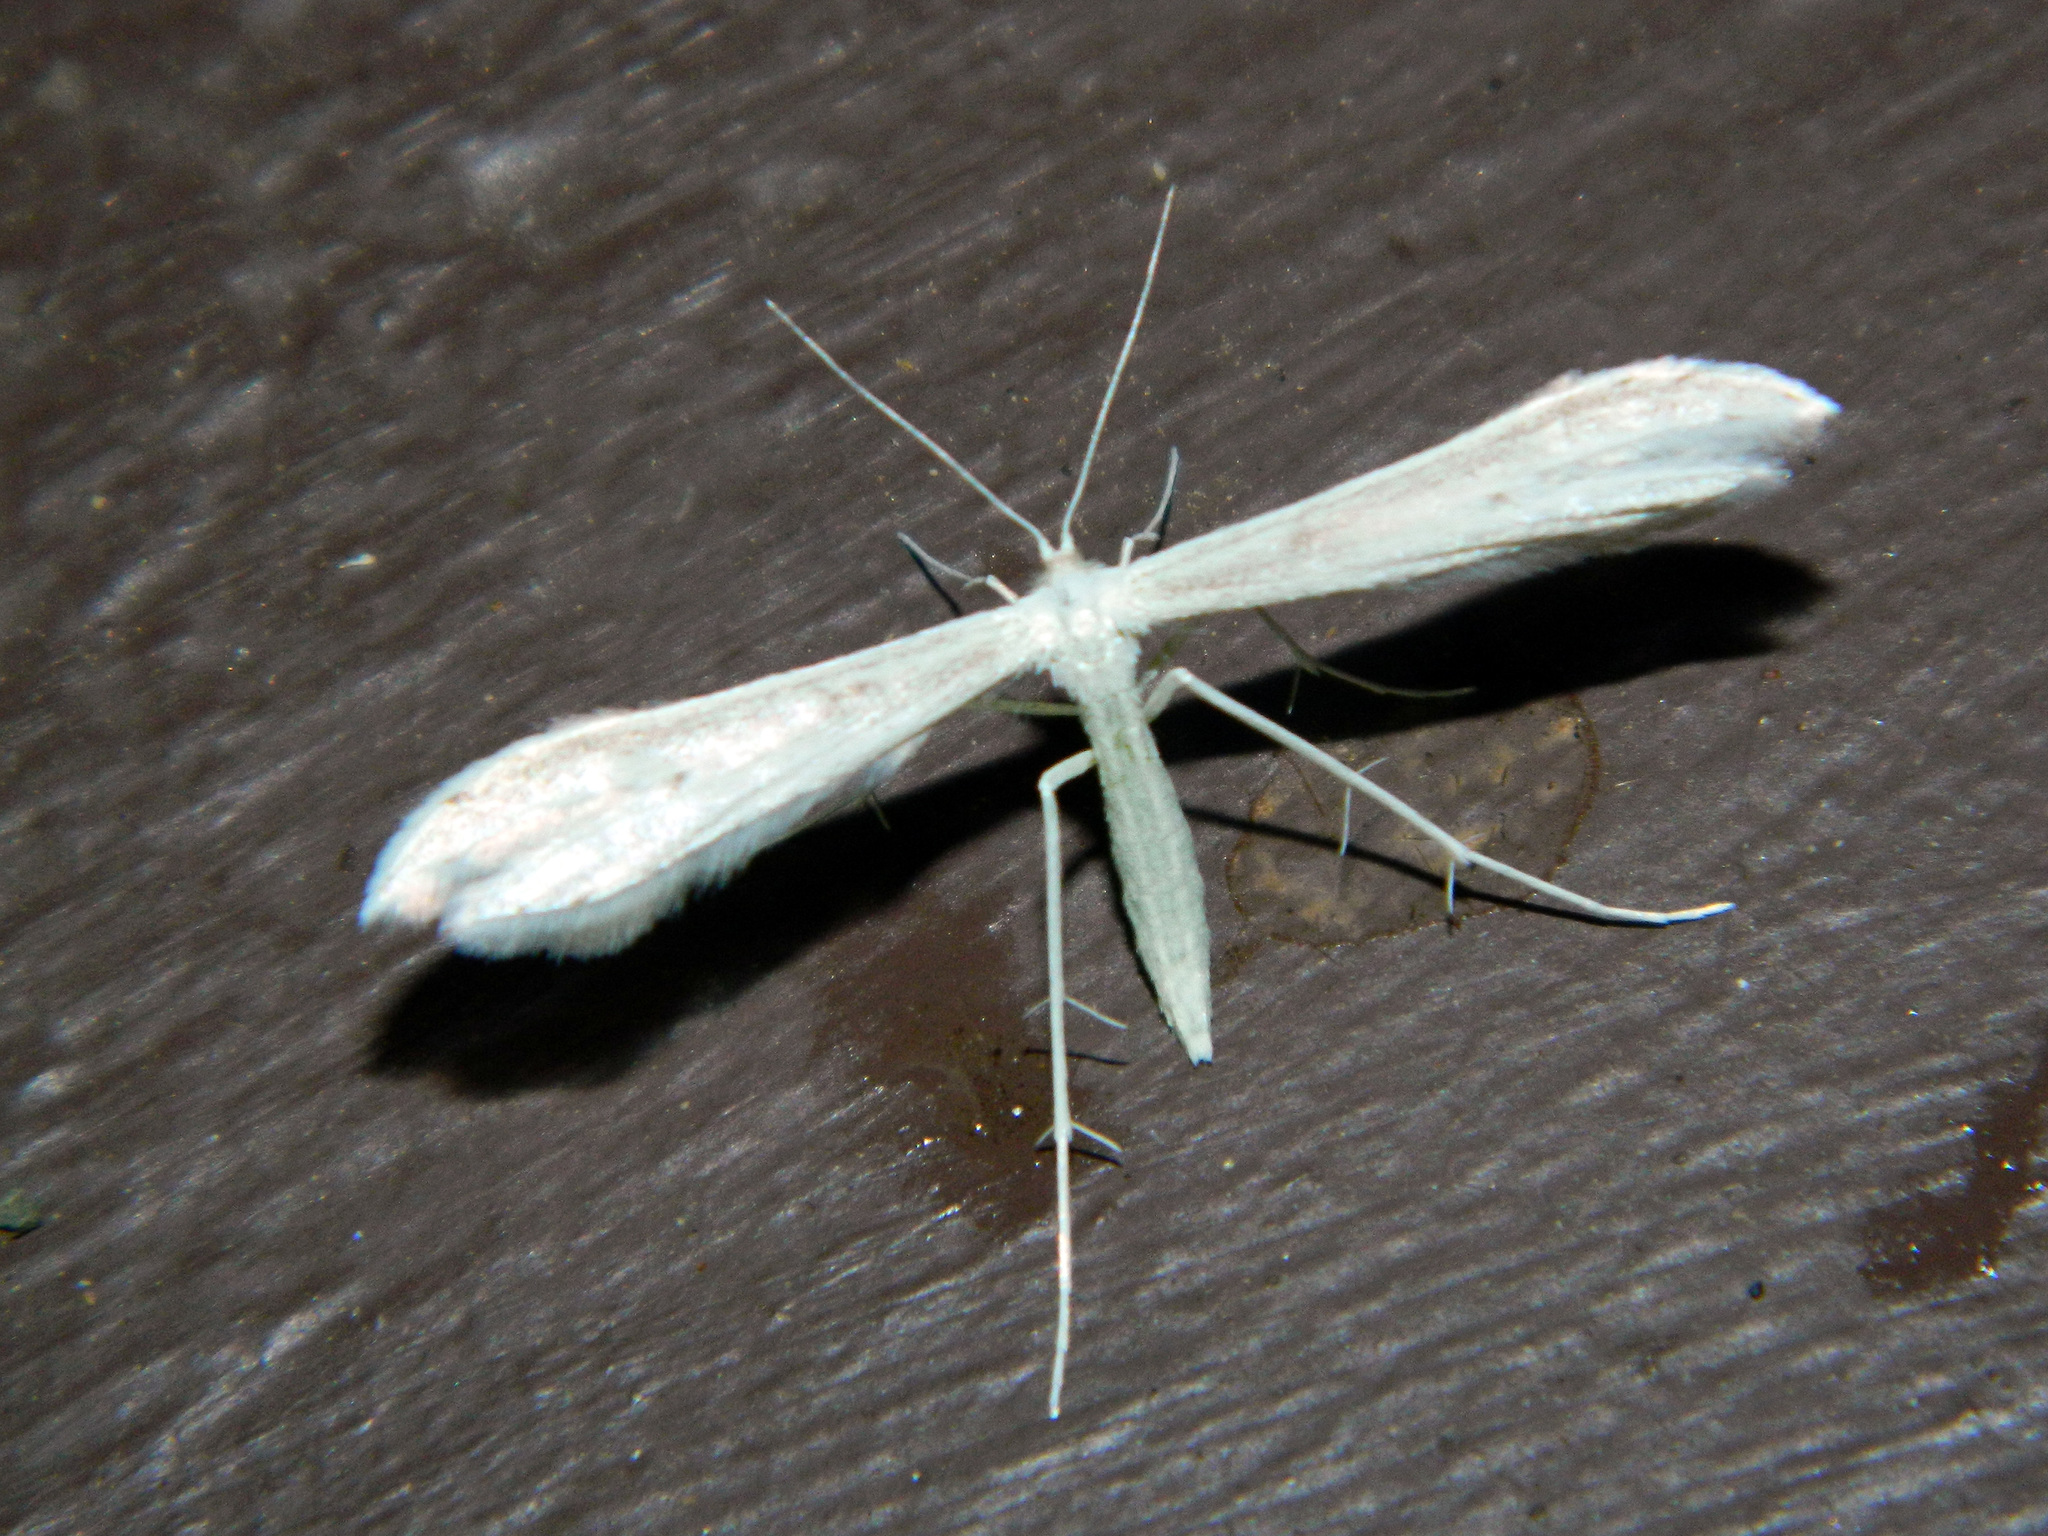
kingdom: Animalia
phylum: Arthropoda
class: Insecta
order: Lepidoptera
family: Pterophoridae
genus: Hellinsia
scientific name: Hellinsia homodactylus
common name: Plain plume moth
